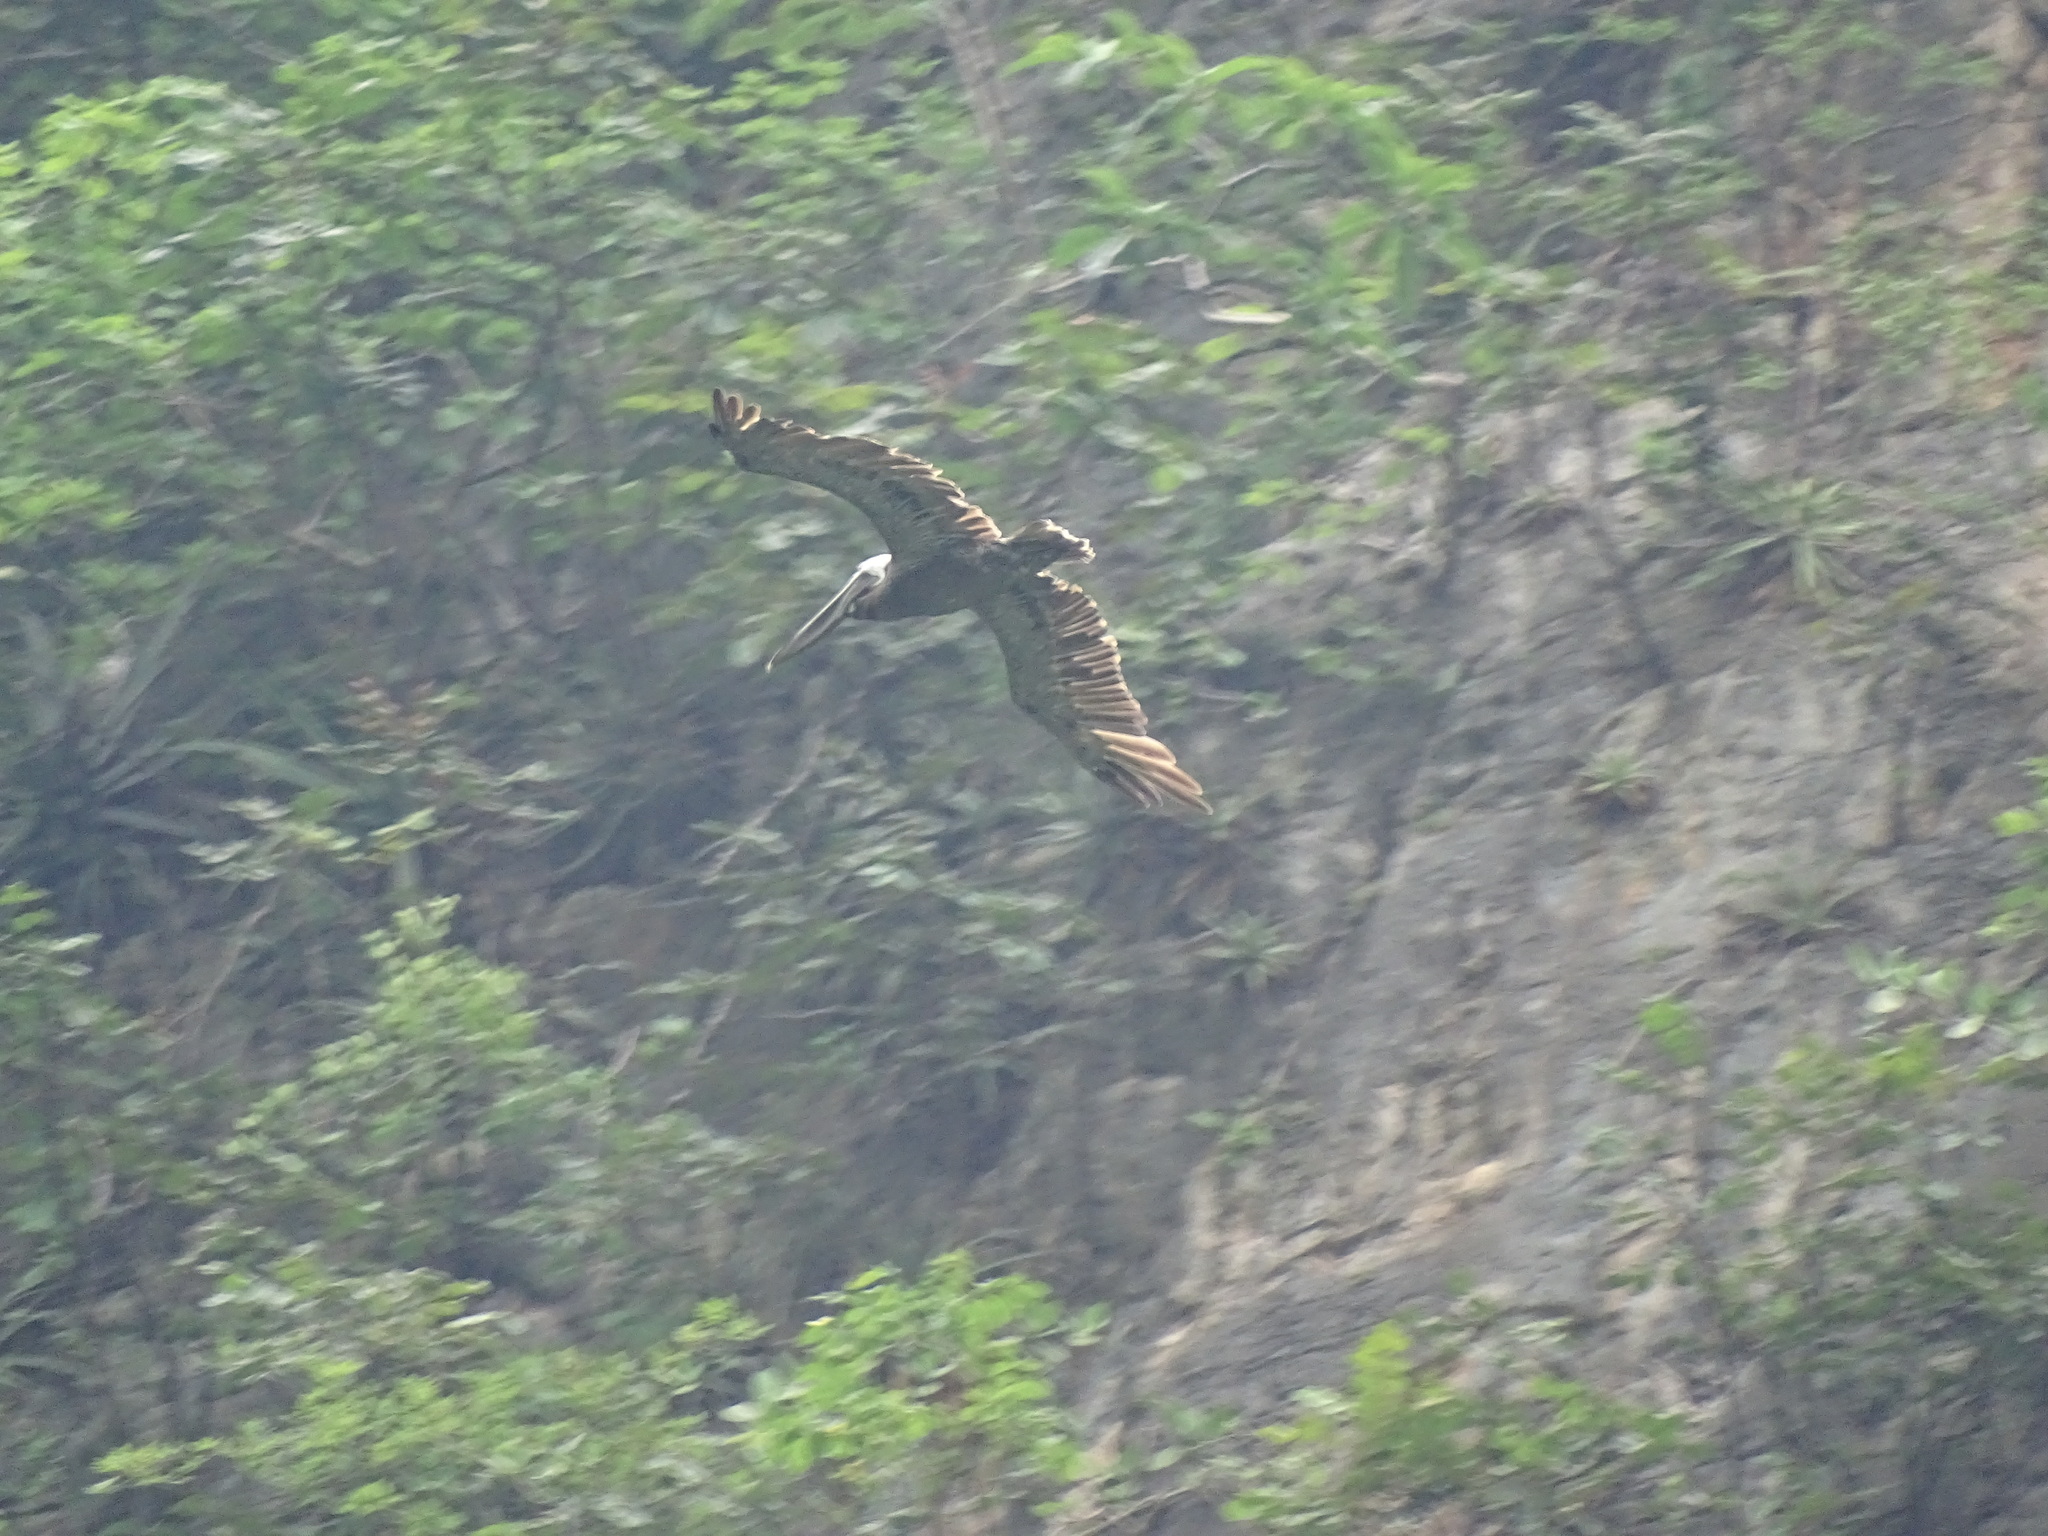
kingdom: Animalia
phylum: Chordata
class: Aves
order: Pelecaniformes
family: Pelecanidae
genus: Pelecanus
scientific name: Pelecanus occidentalis
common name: Brown pelican
